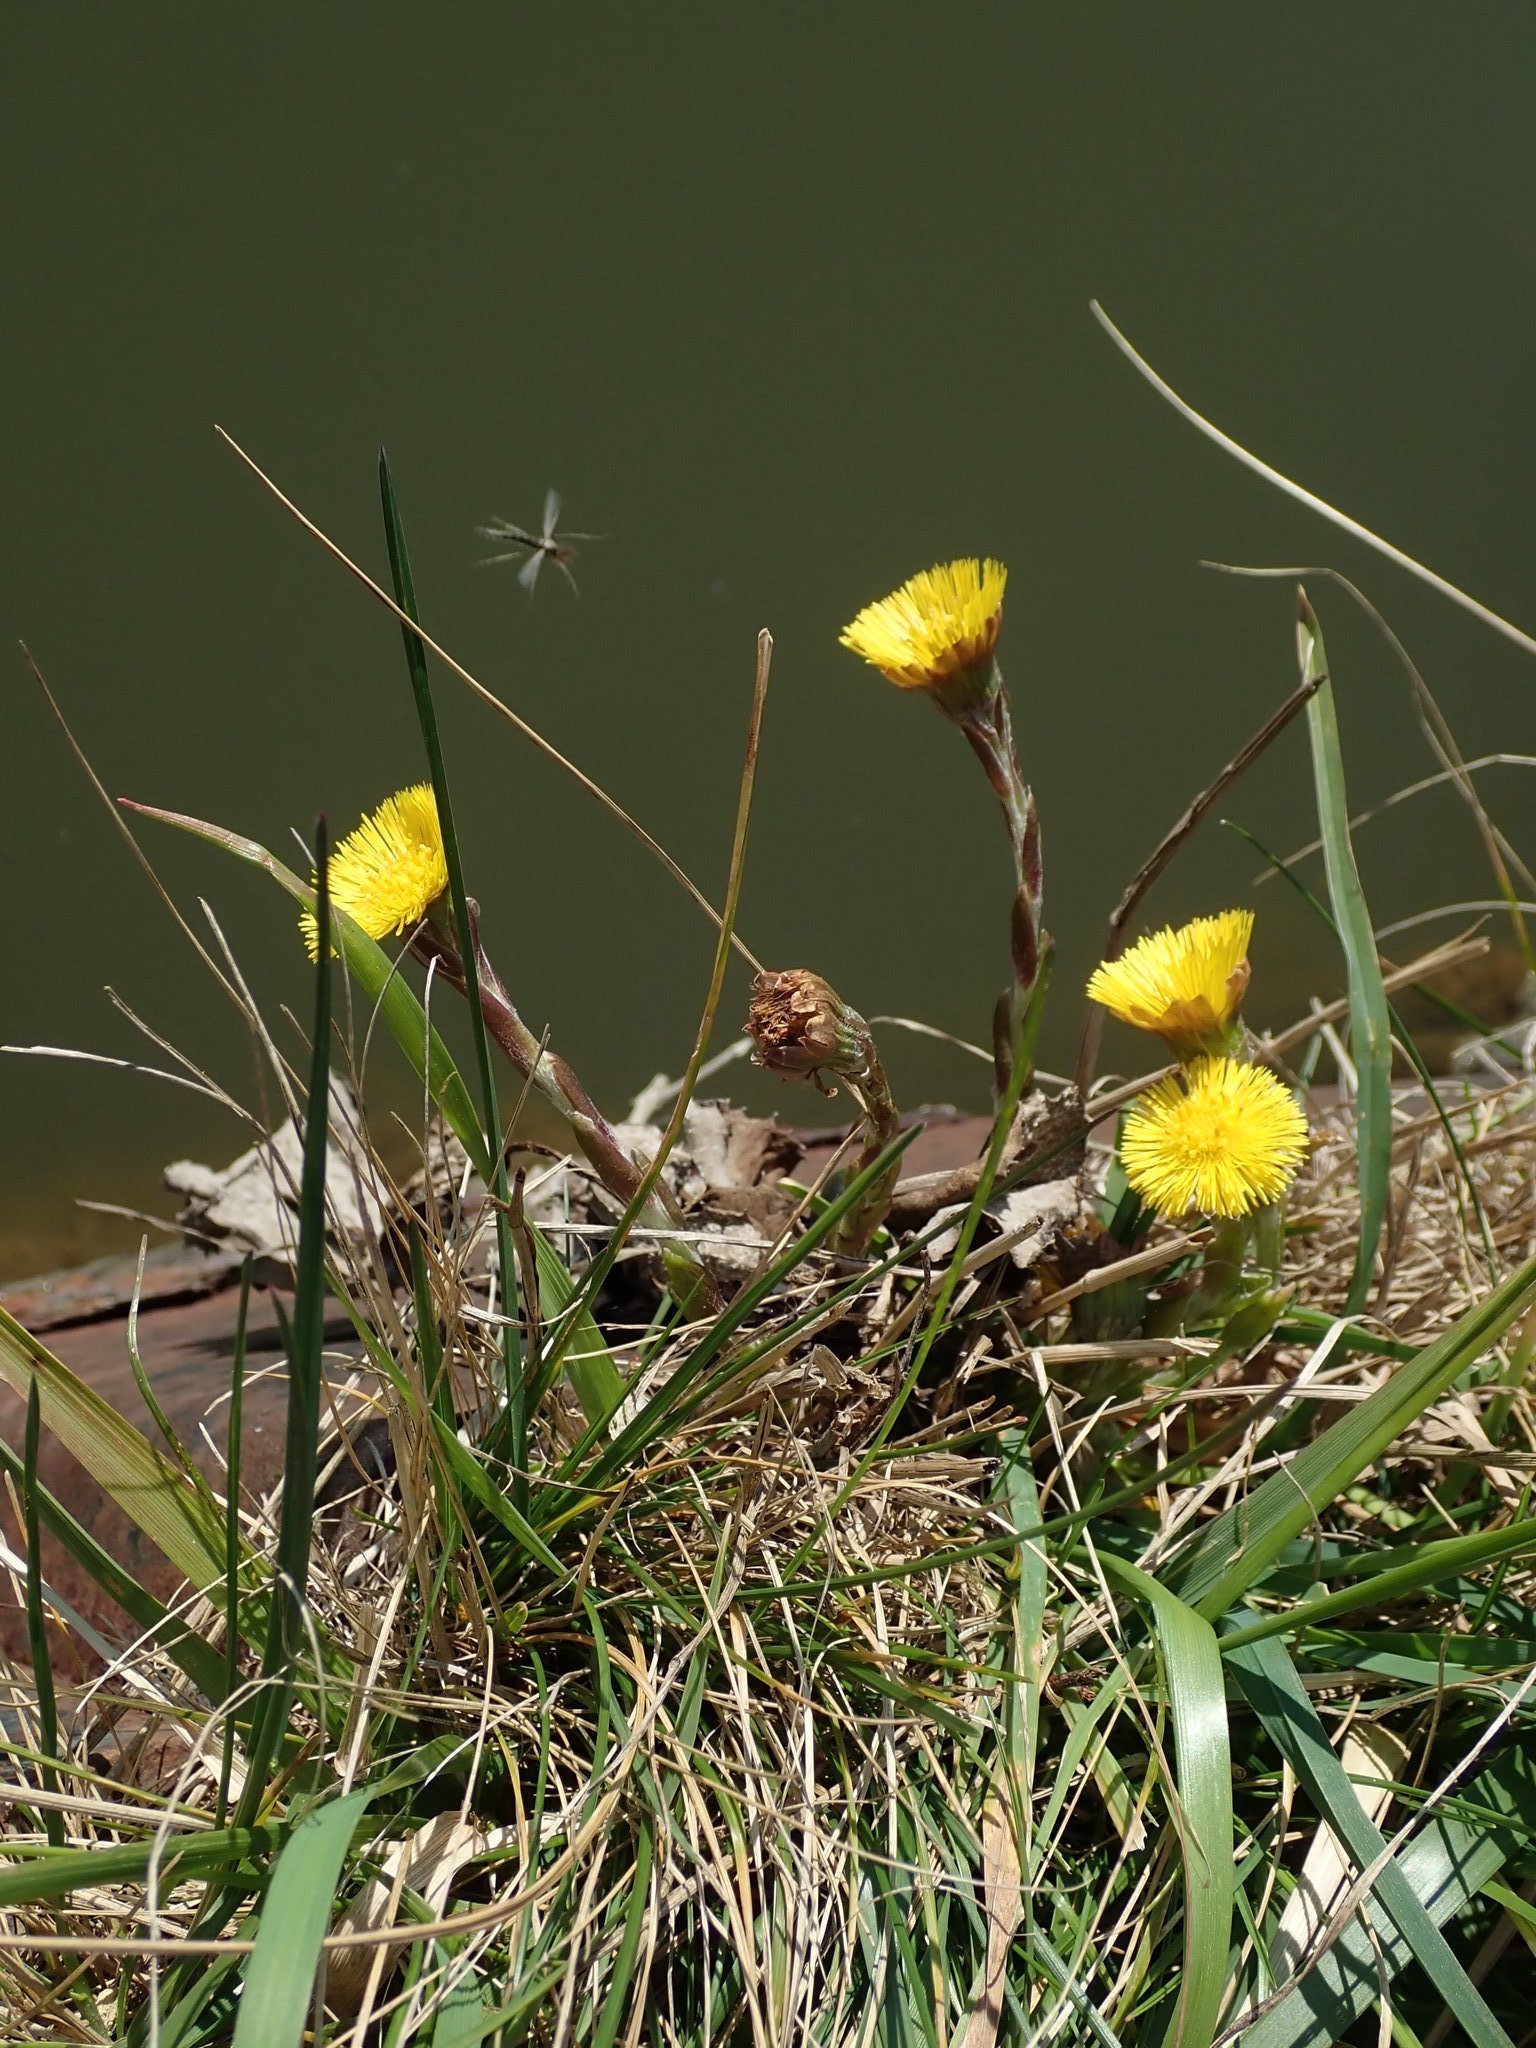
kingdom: Plantae
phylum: Tracheophyta
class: Magnoliopsida
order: Asterales
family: Asteraceae
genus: Tussilago
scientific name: Tussilago farfara
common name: Coltsfoot
